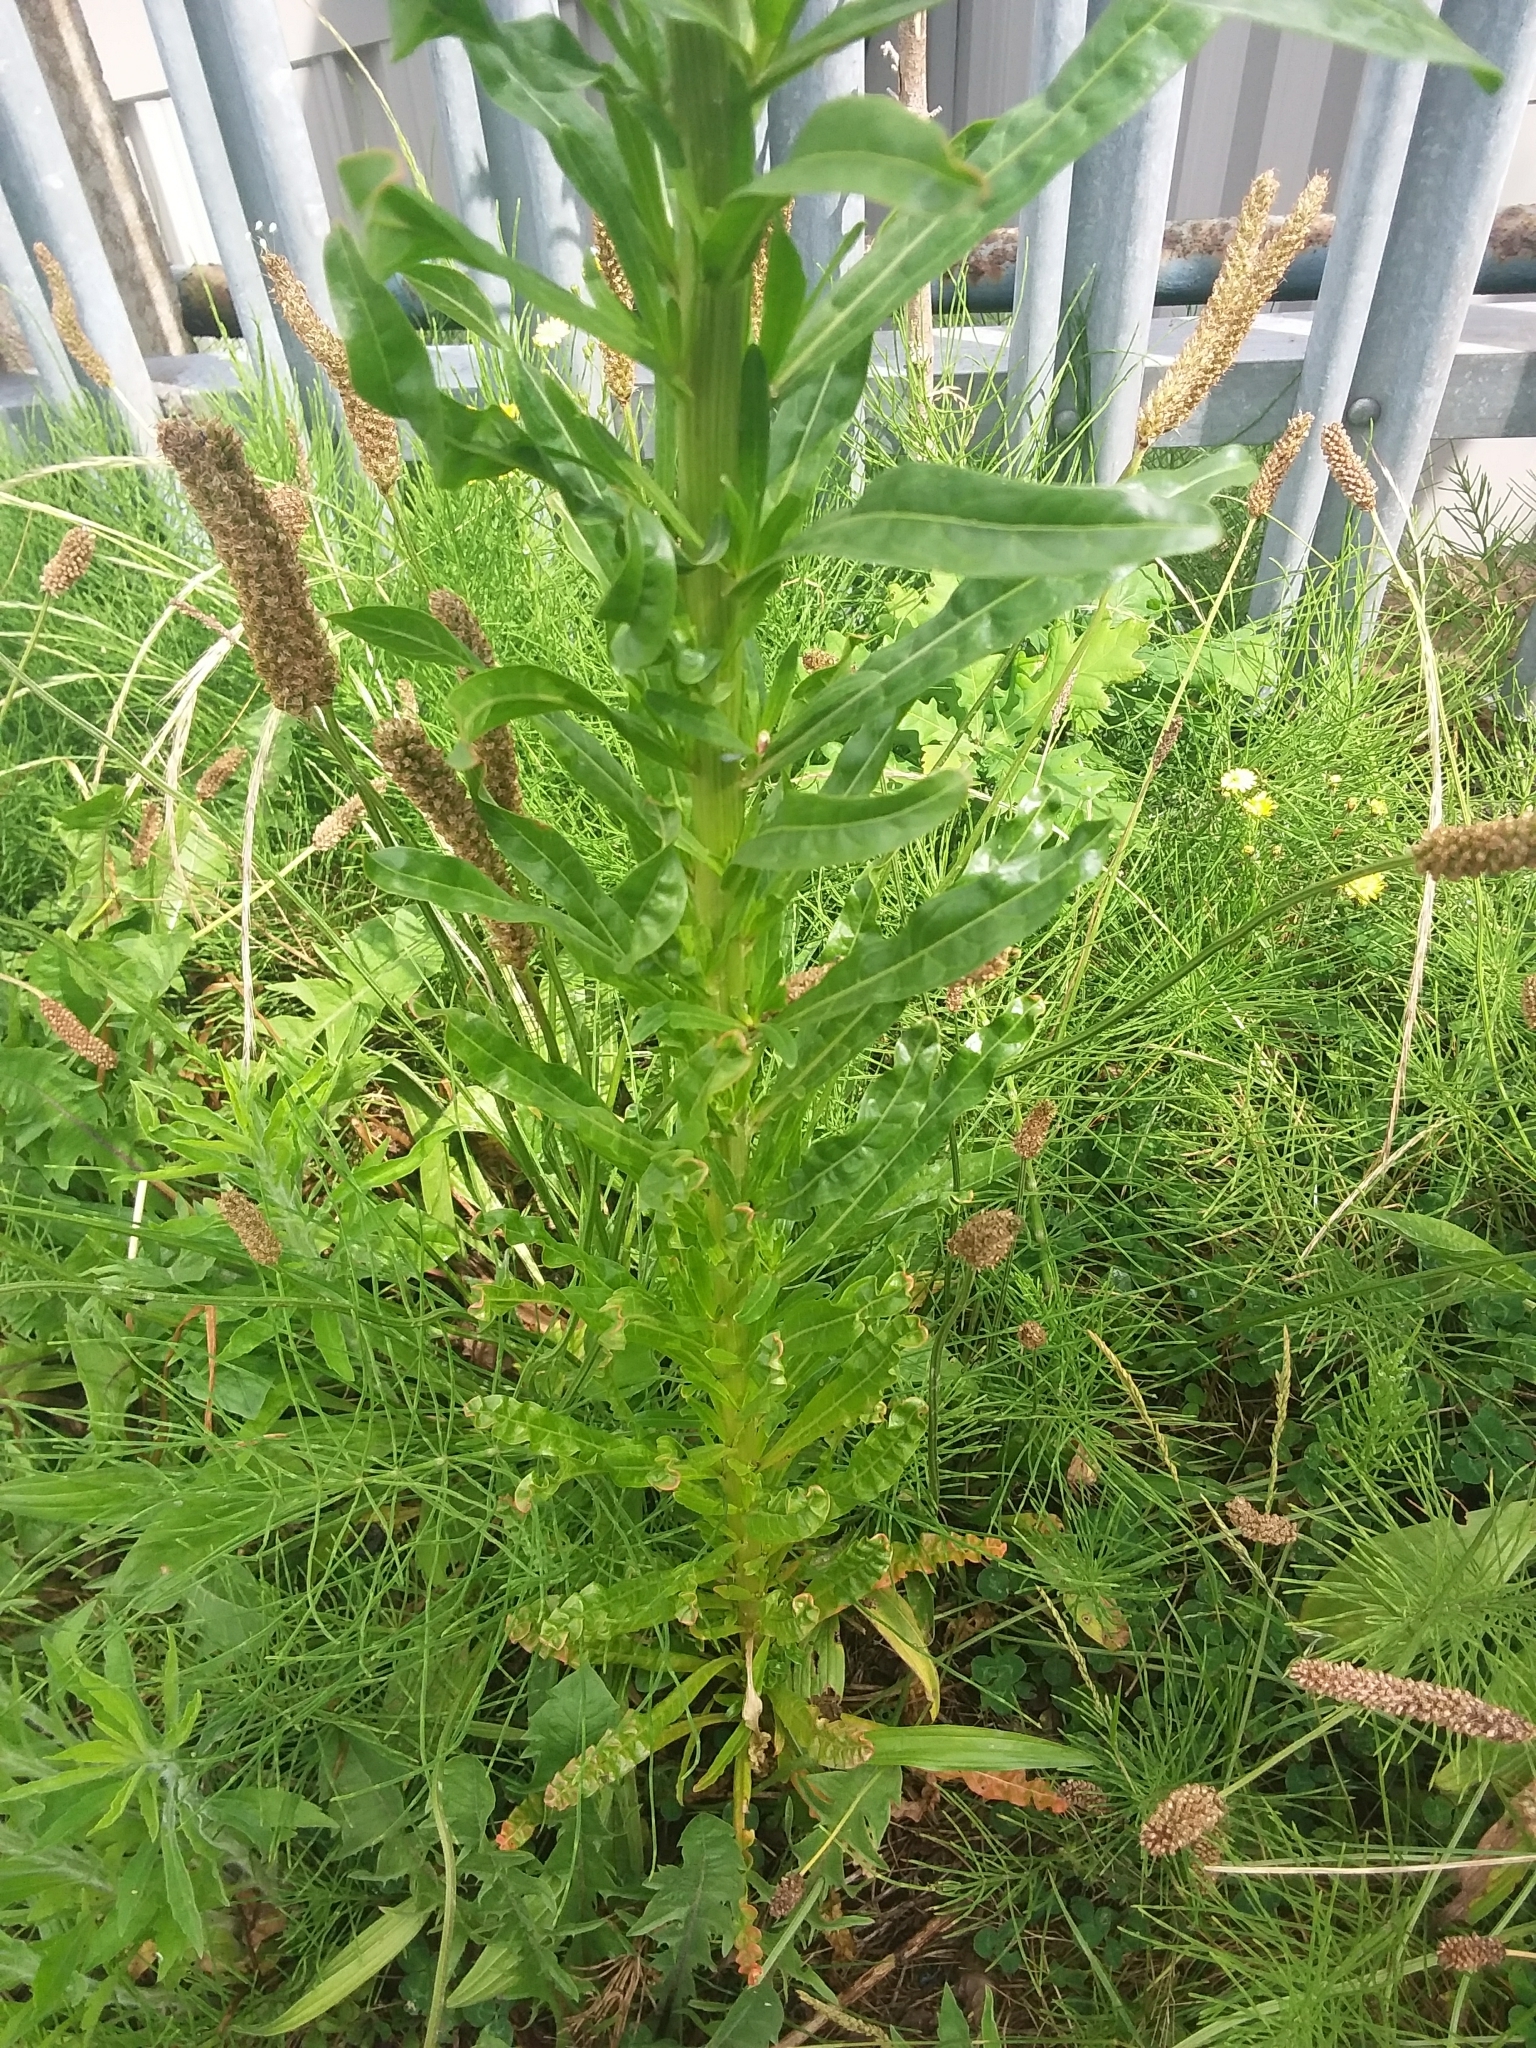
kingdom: Plantae
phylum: Tracheophyta
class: Magnoliopsida
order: Brassicales
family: Resedaceae
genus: Reseda
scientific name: Reseda luteola
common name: Weld
